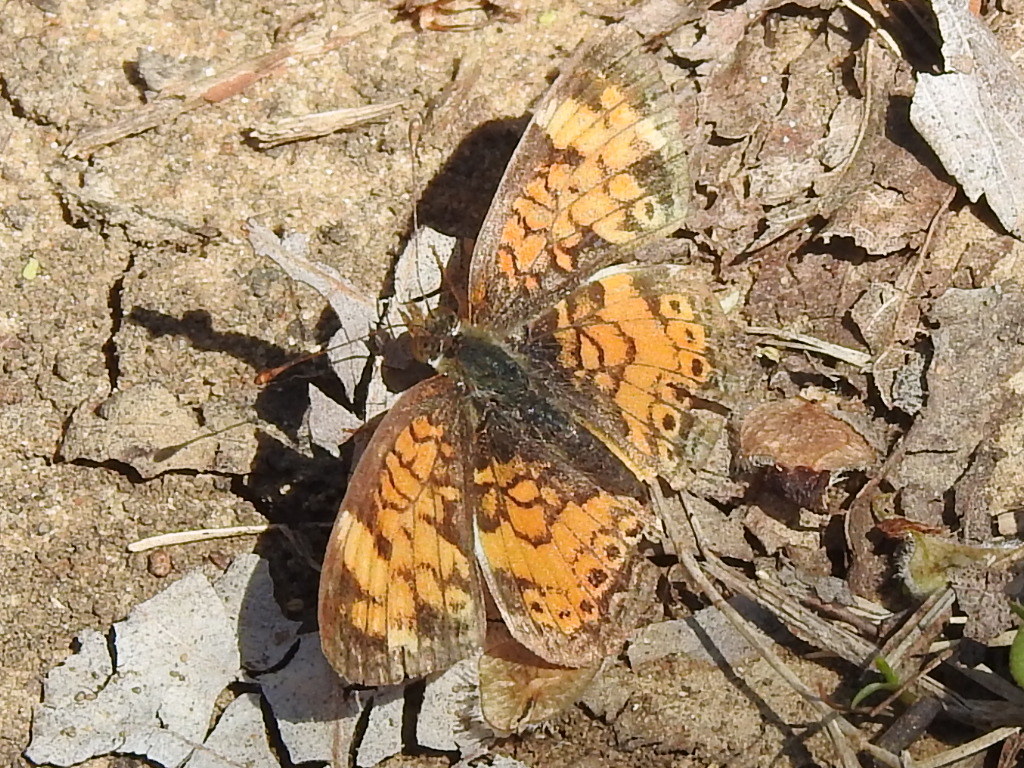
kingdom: Animalia
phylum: Arthropoda
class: Insecta
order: Lepidoptera
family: Nymphalidae
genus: Phyciodes
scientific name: Phyciodes tharos
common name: Pearl crescent
